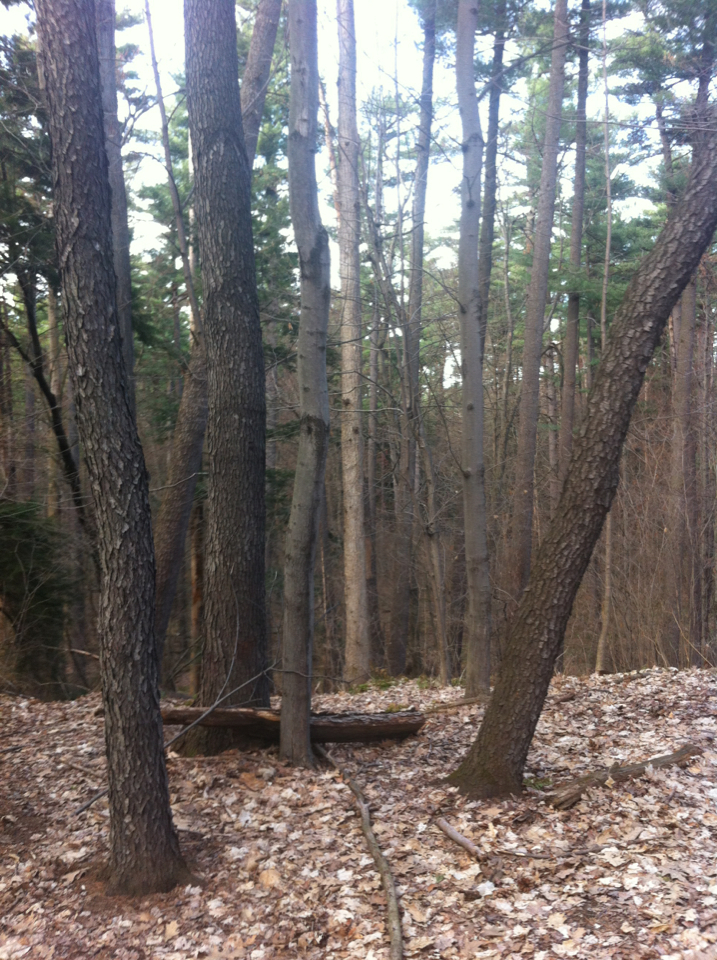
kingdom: Plantae
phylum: Tracheophyta
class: Magnoliopsida
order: Rosales
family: Rosaceae
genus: Prunus
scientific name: Prunus serotina
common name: Black cherry
